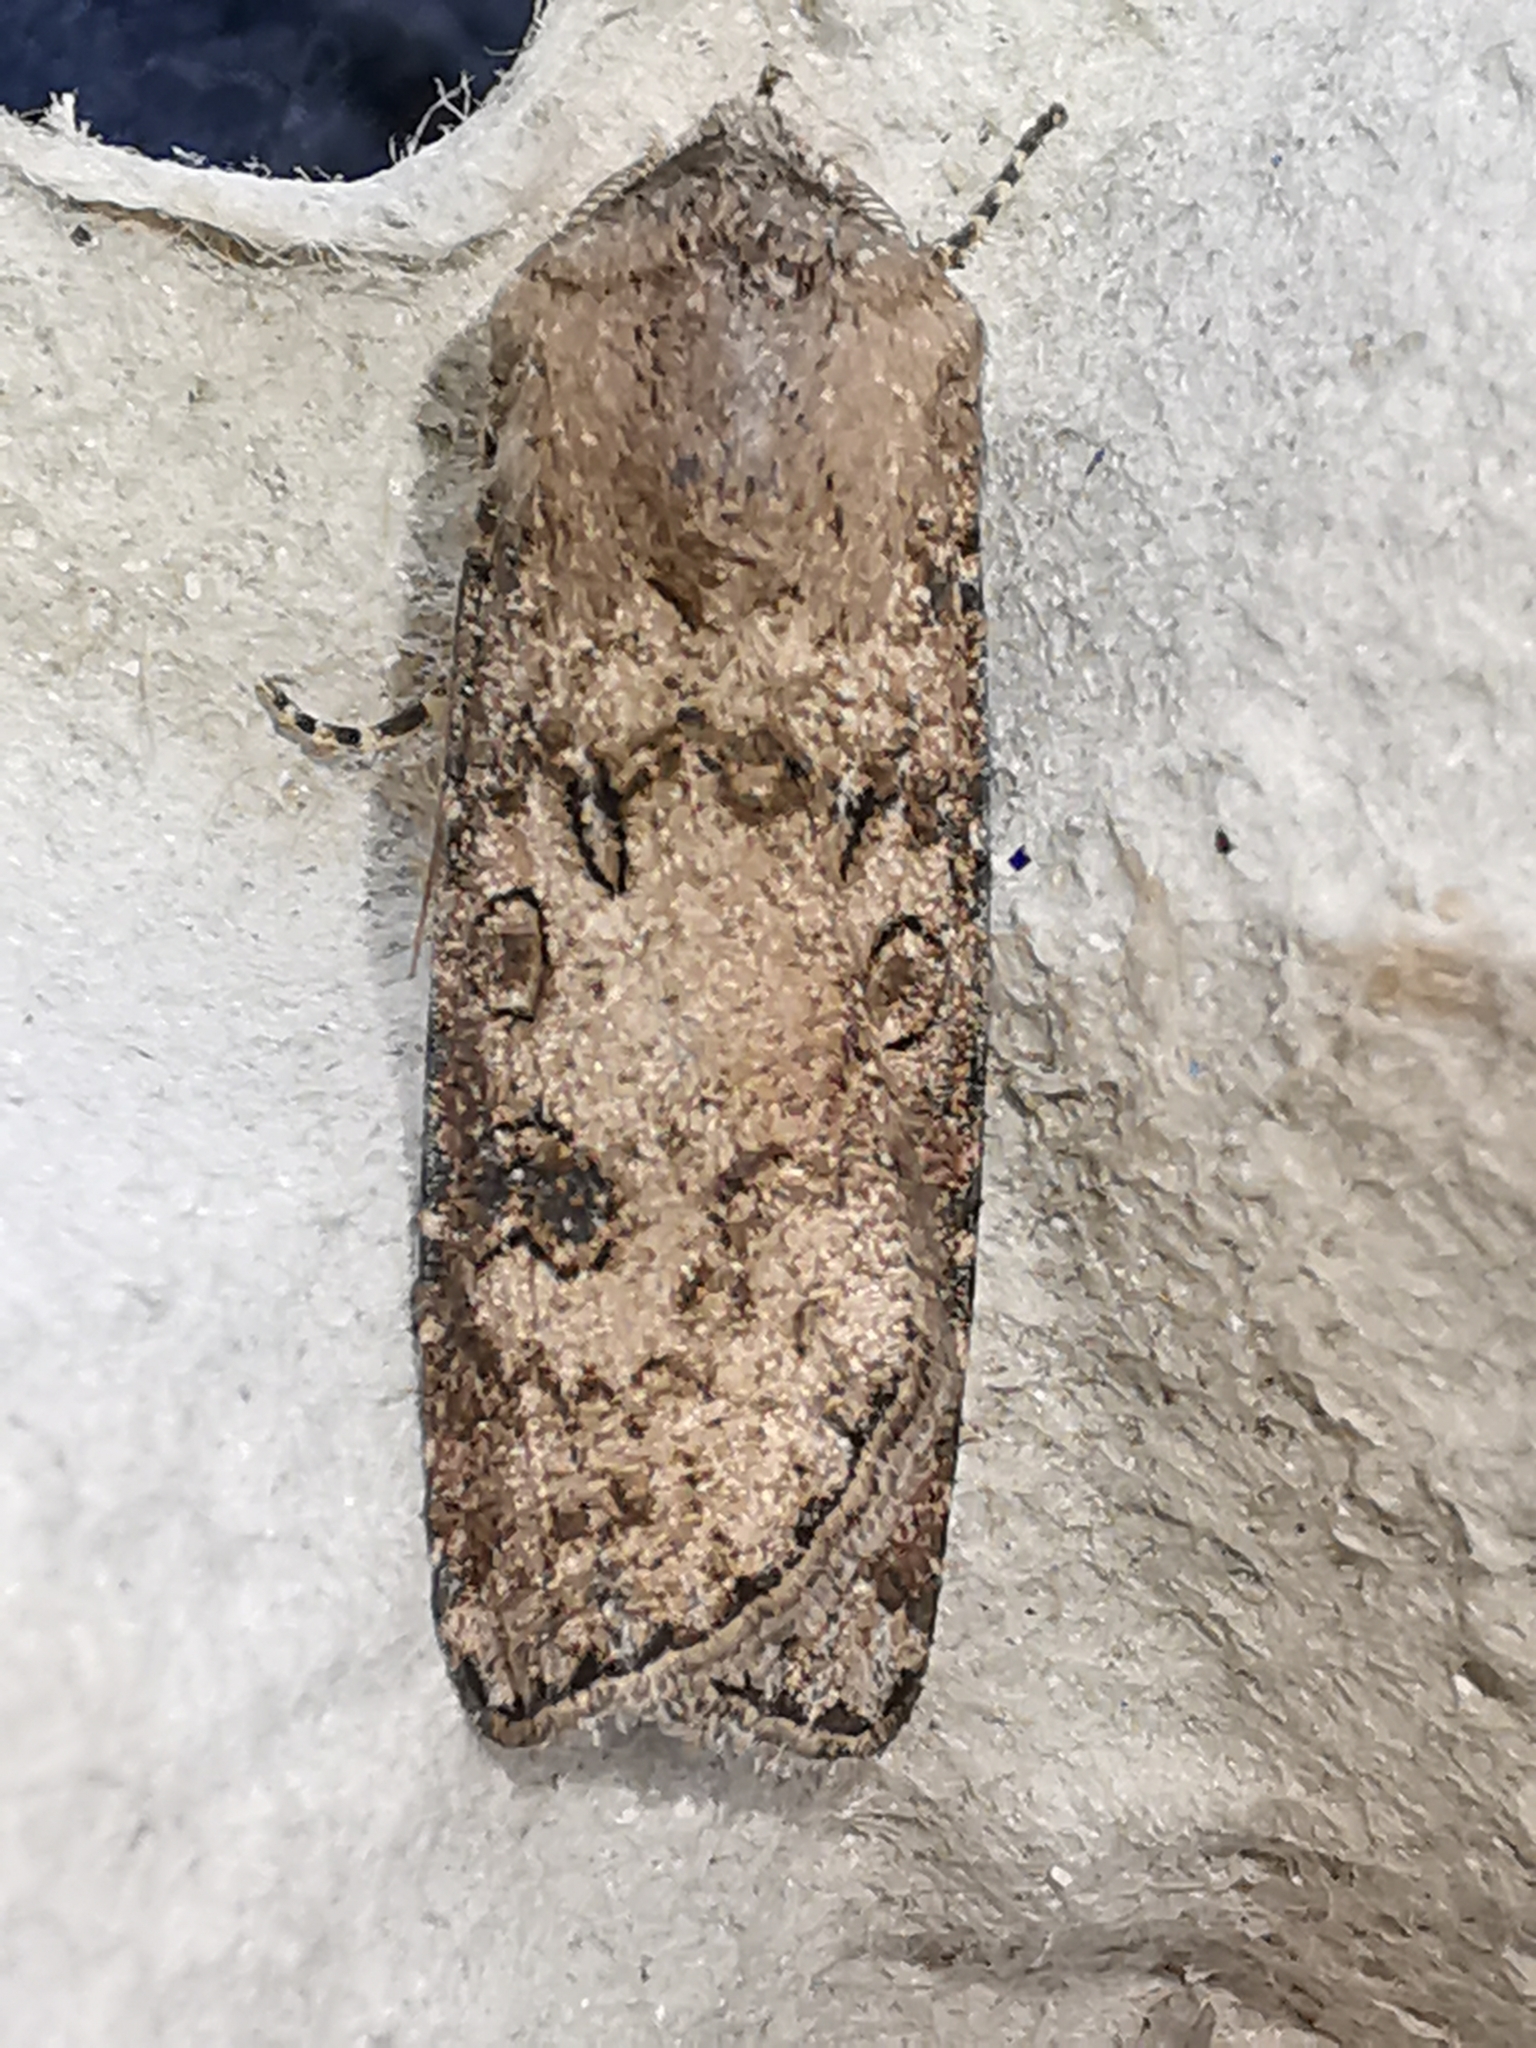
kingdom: Animalia
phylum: Arthropoda
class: Insecta
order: Lepidoptera
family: Noctuidae
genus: Agrotis
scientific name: Agrotis segetum
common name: Turnip moth
